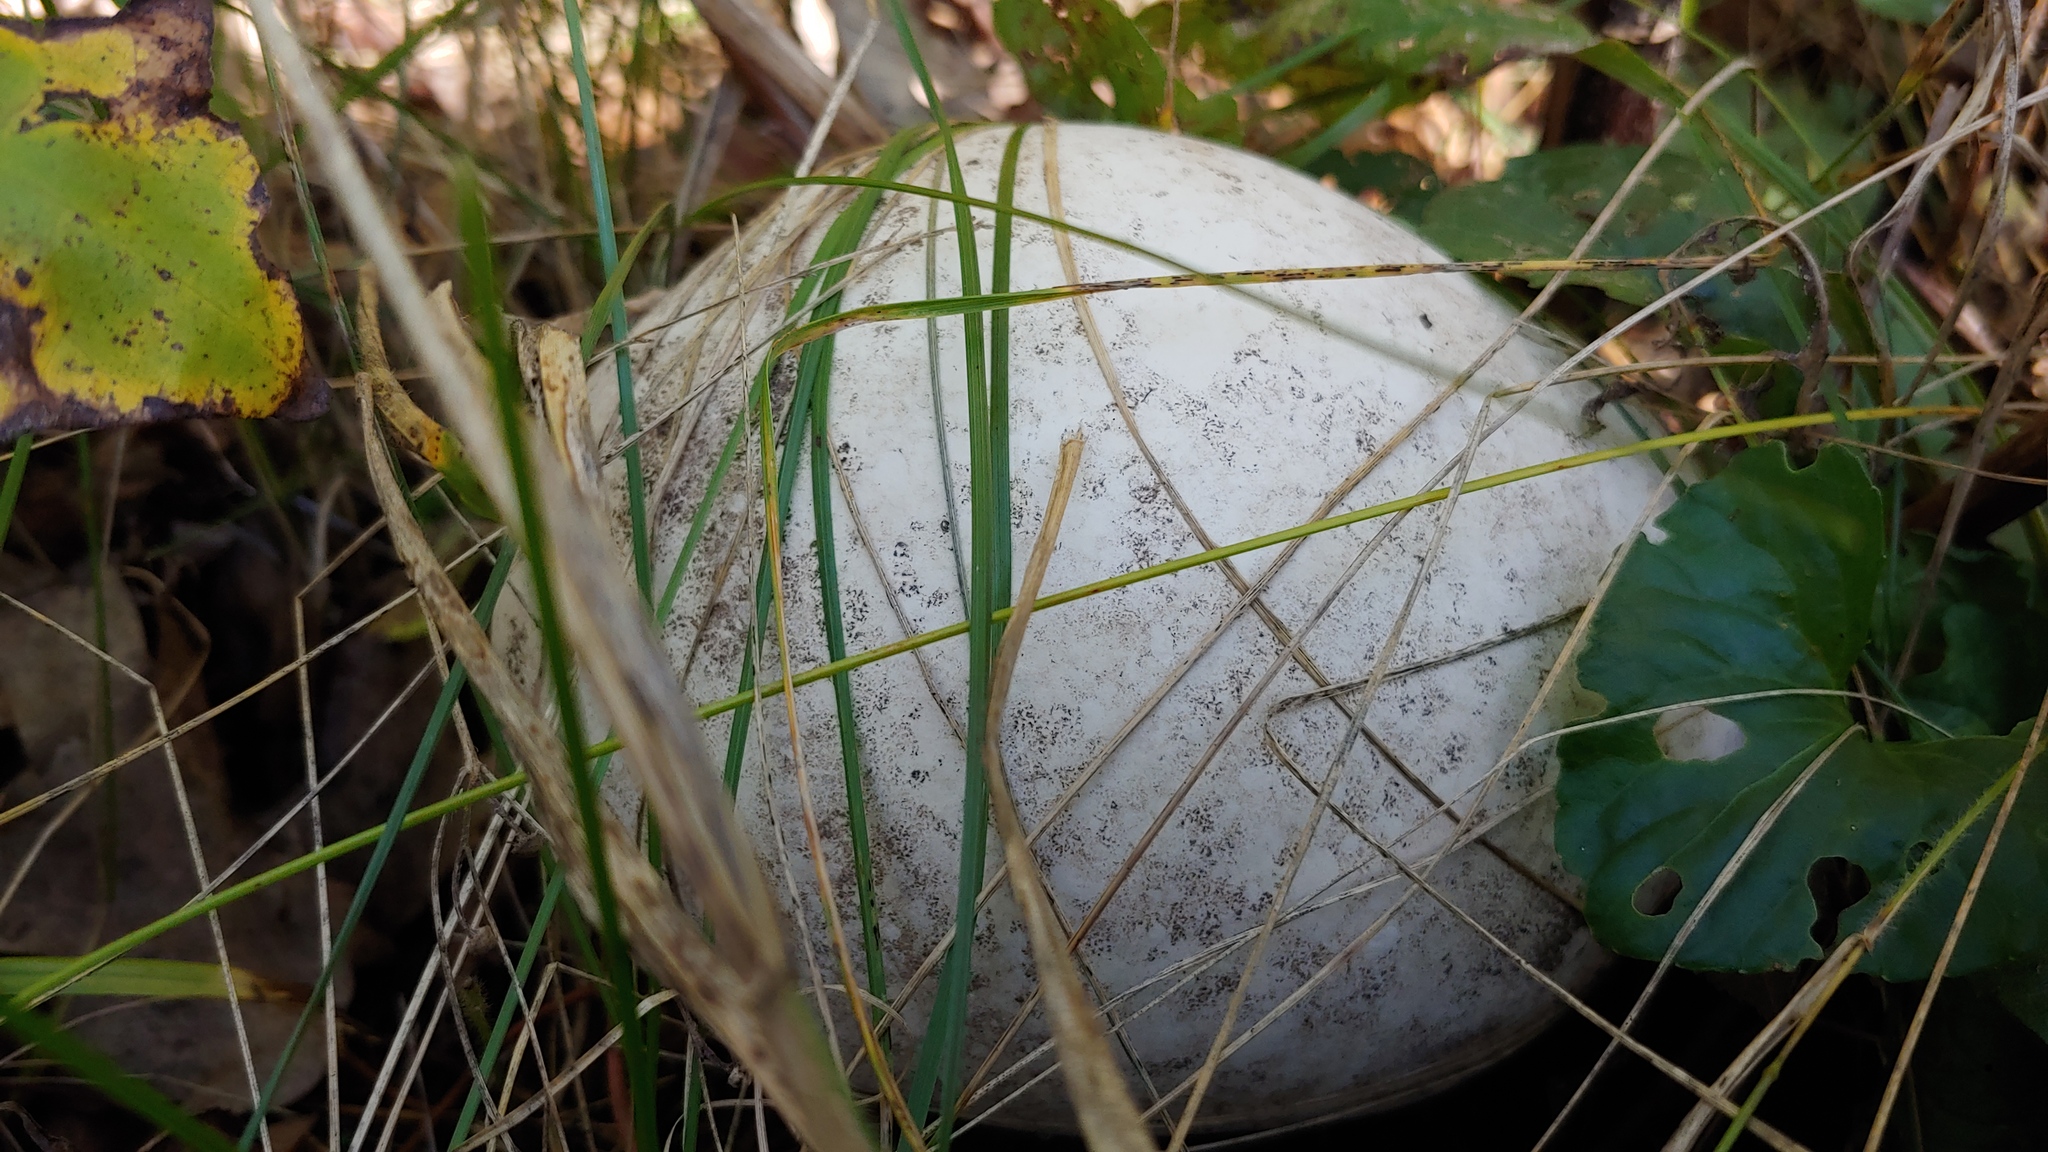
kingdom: Fungi
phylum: Basidiomycota
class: Agaricomycetes
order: Agaricales
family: Lycoperdaceae
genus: Calvatia
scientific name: Calvatia gigantea
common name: Giant puffball
